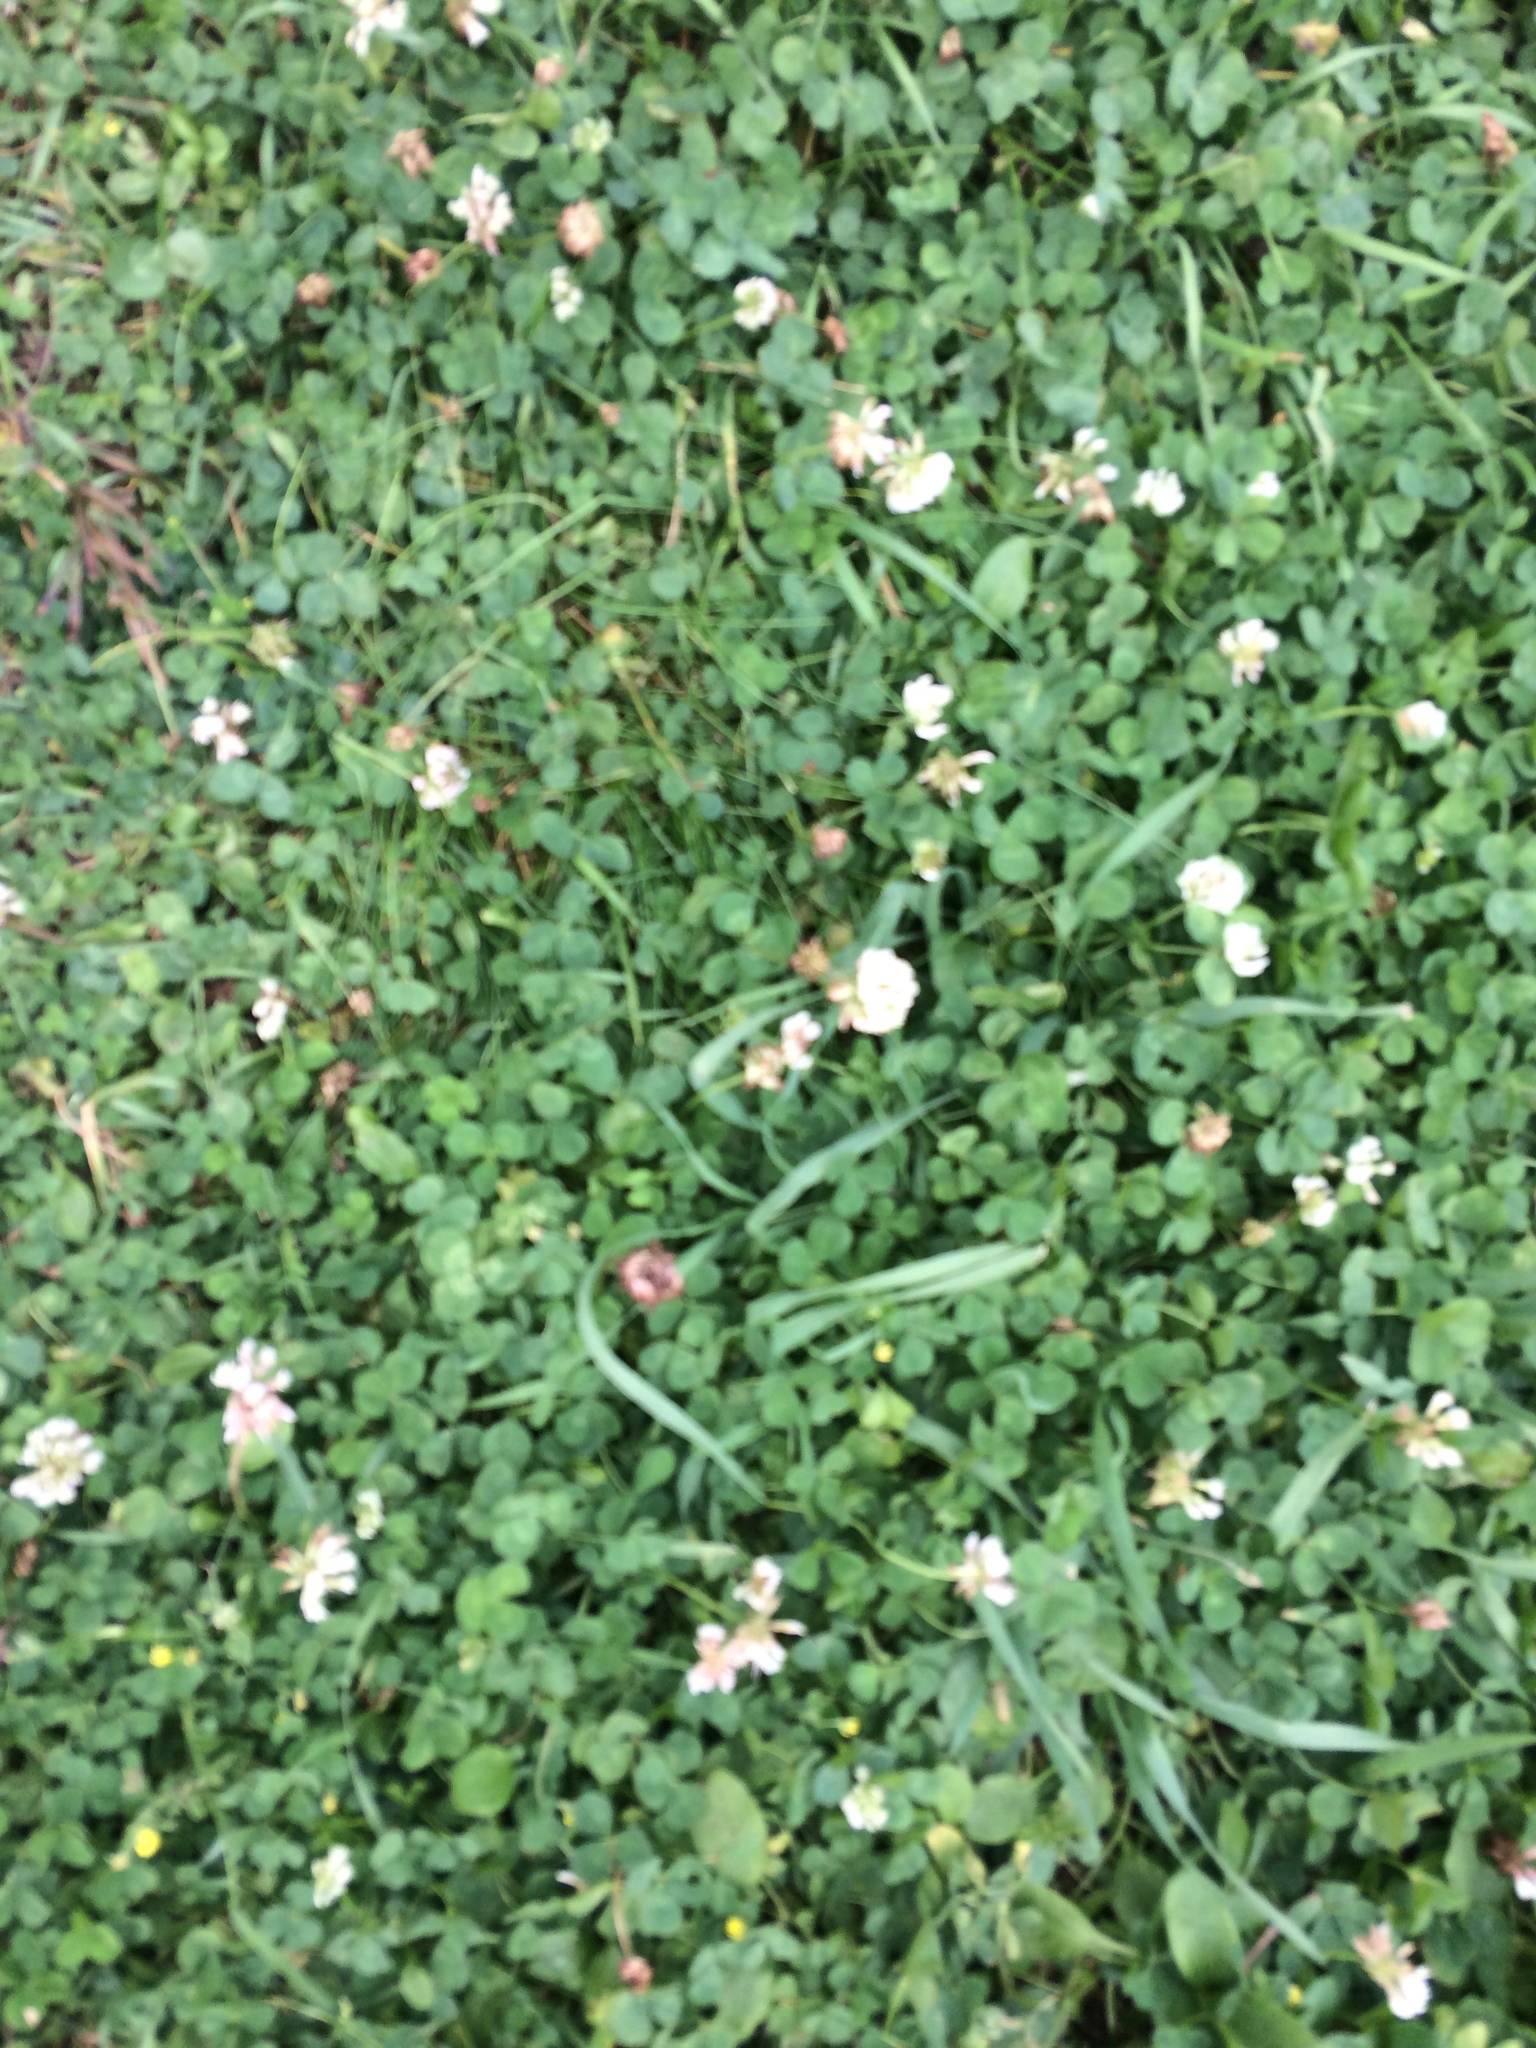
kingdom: Plantae
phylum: Tracheophyta
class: Magnoliopsida
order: Fabales
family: Fabaceae
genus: Trifolium
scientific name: Trifolium repens
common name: White clover
